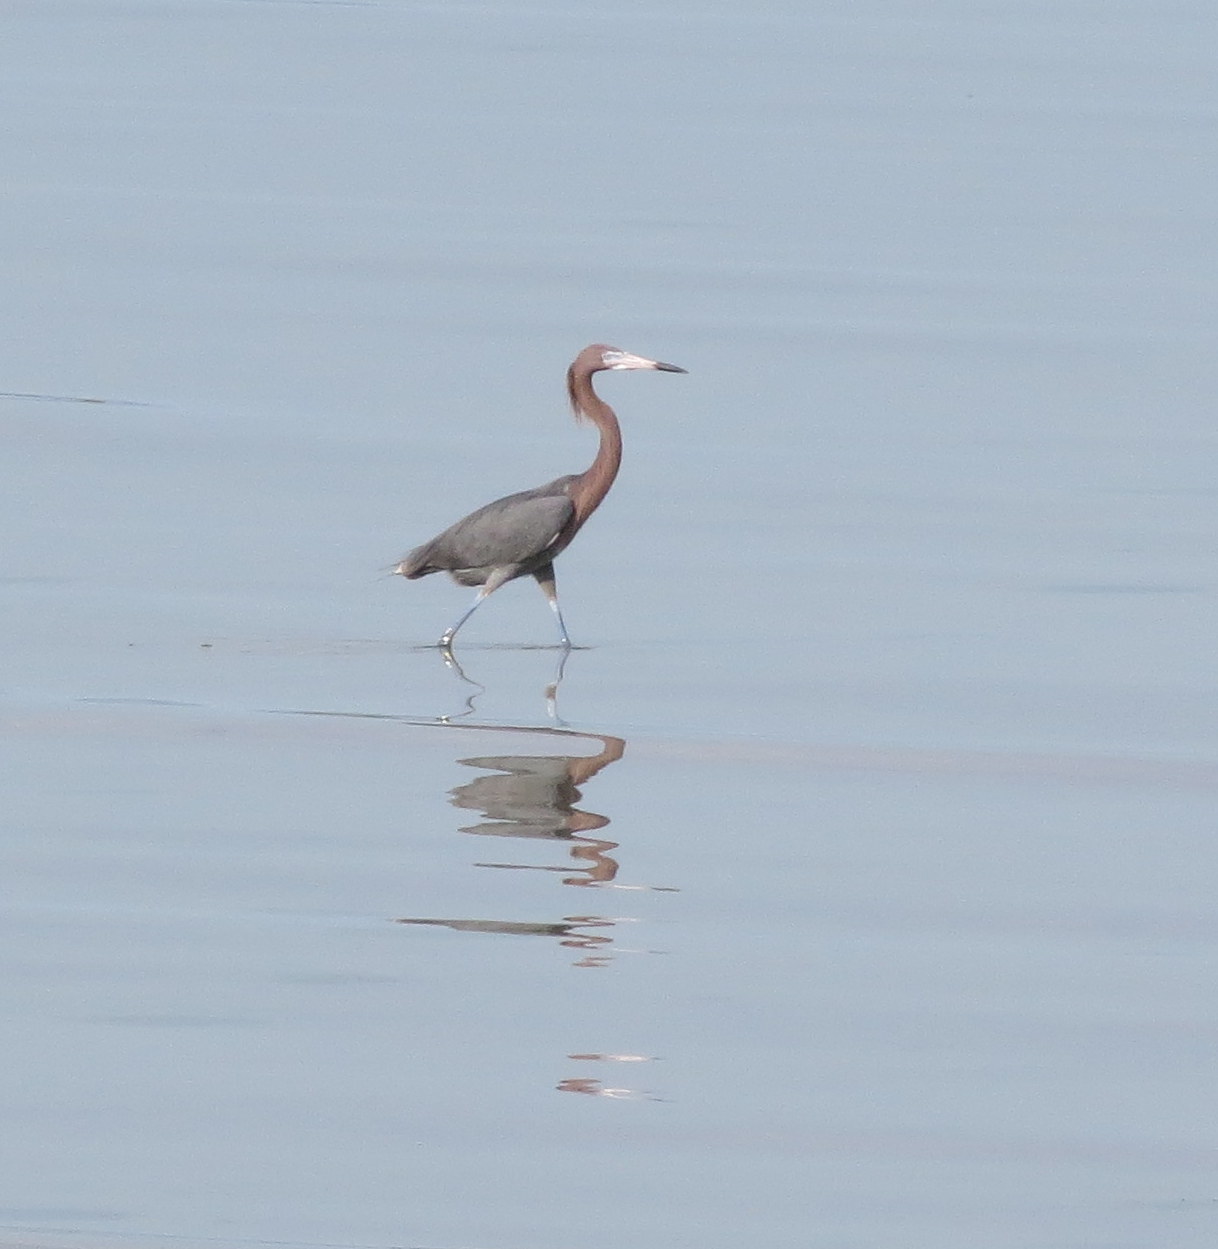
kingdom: Animalia
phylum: Chordata
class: Aves
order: Pelecaniformes
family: Ardeidae
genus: Egretta
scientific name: Egretta rufescens
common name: Reddish egret
